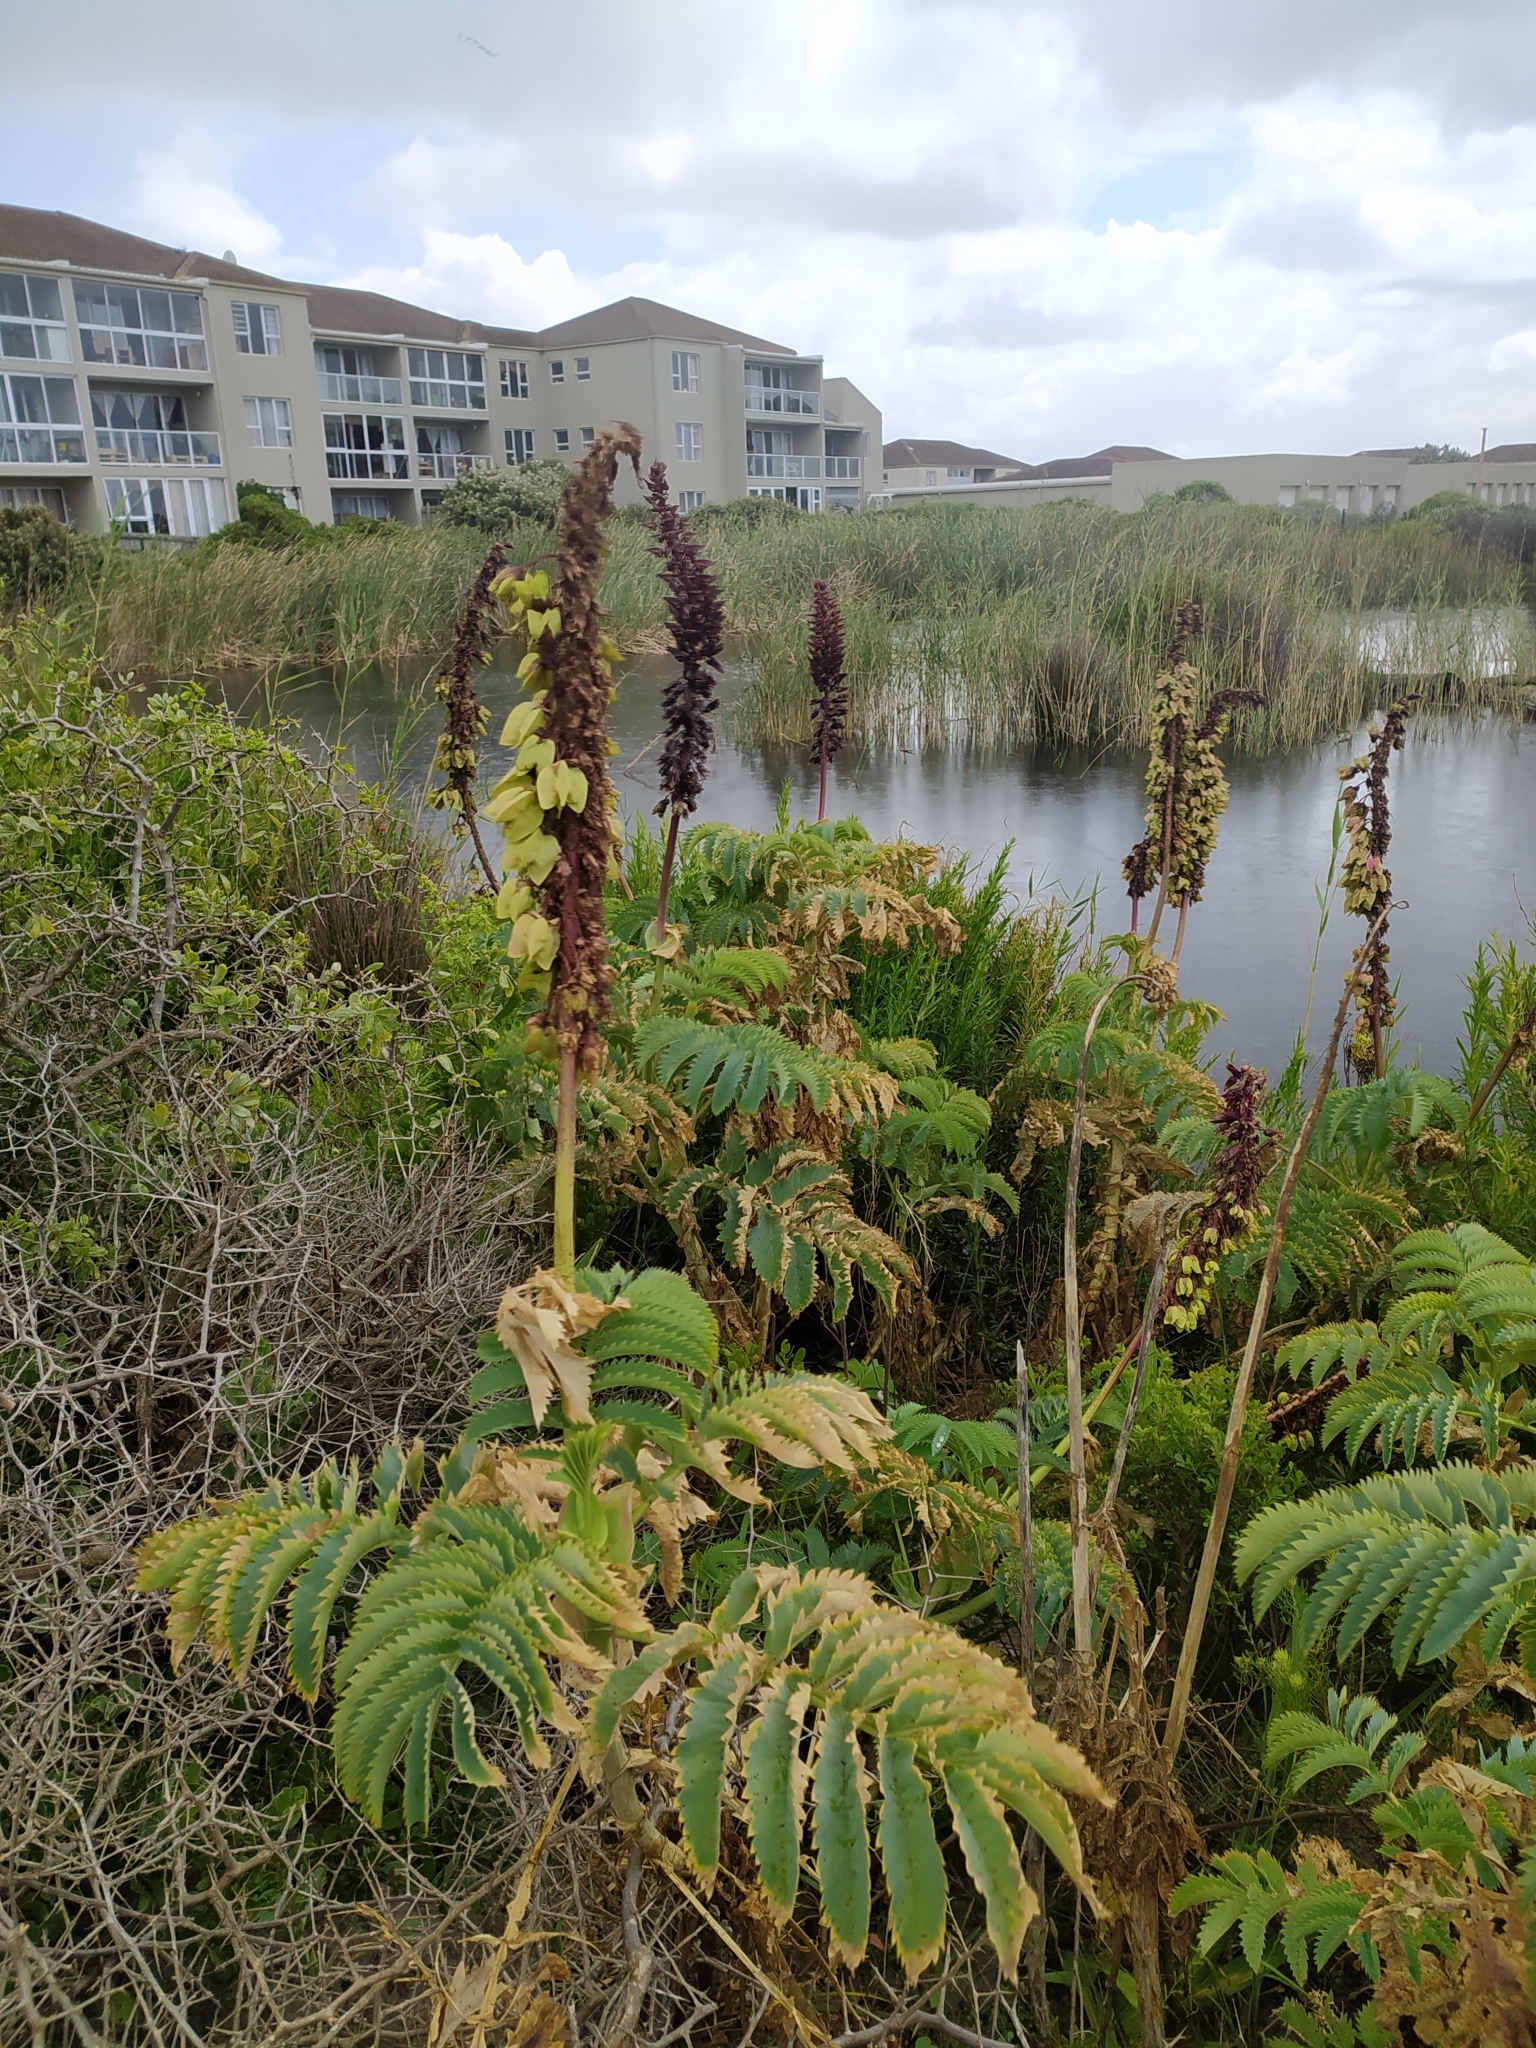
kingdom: Plantae
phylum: Tracheophyta
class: Magnoliopsida
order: Geraniales
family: Melianthaceae
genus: Melianthus
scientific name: Melianthus major
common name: Honey-flower
